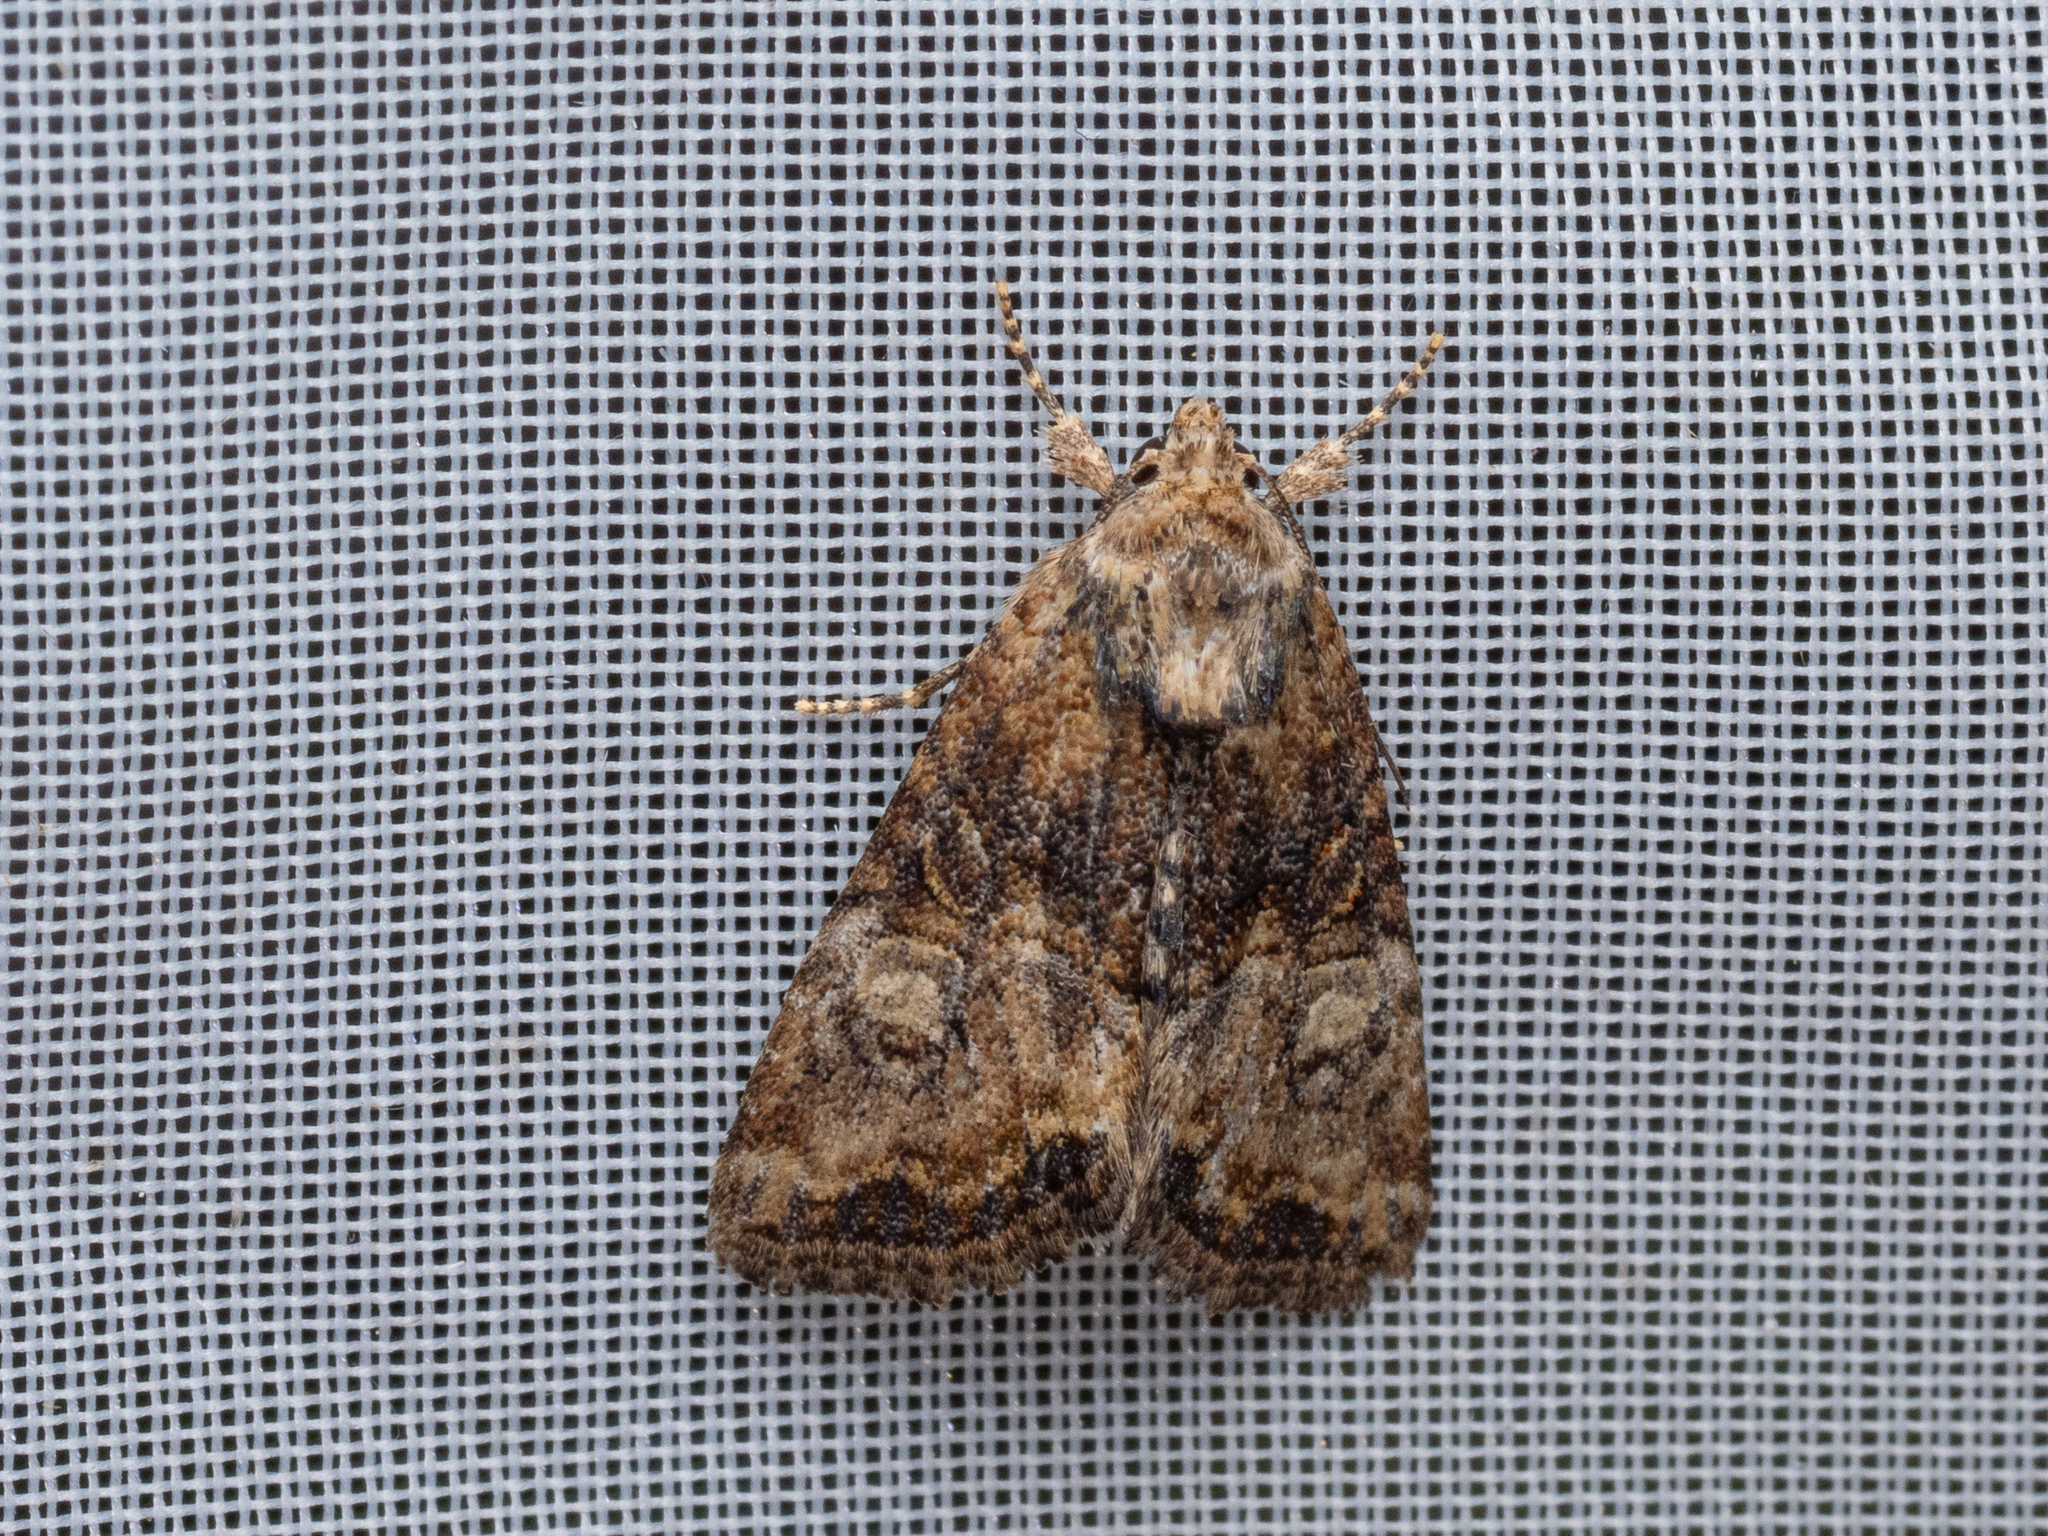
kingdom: Animalia
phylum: Arthropoda
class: Insecta
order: Lepidoptera
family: Noctuidae
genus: Mesoligia
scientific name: Mesoligia furuncula
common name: Cloaked minor
